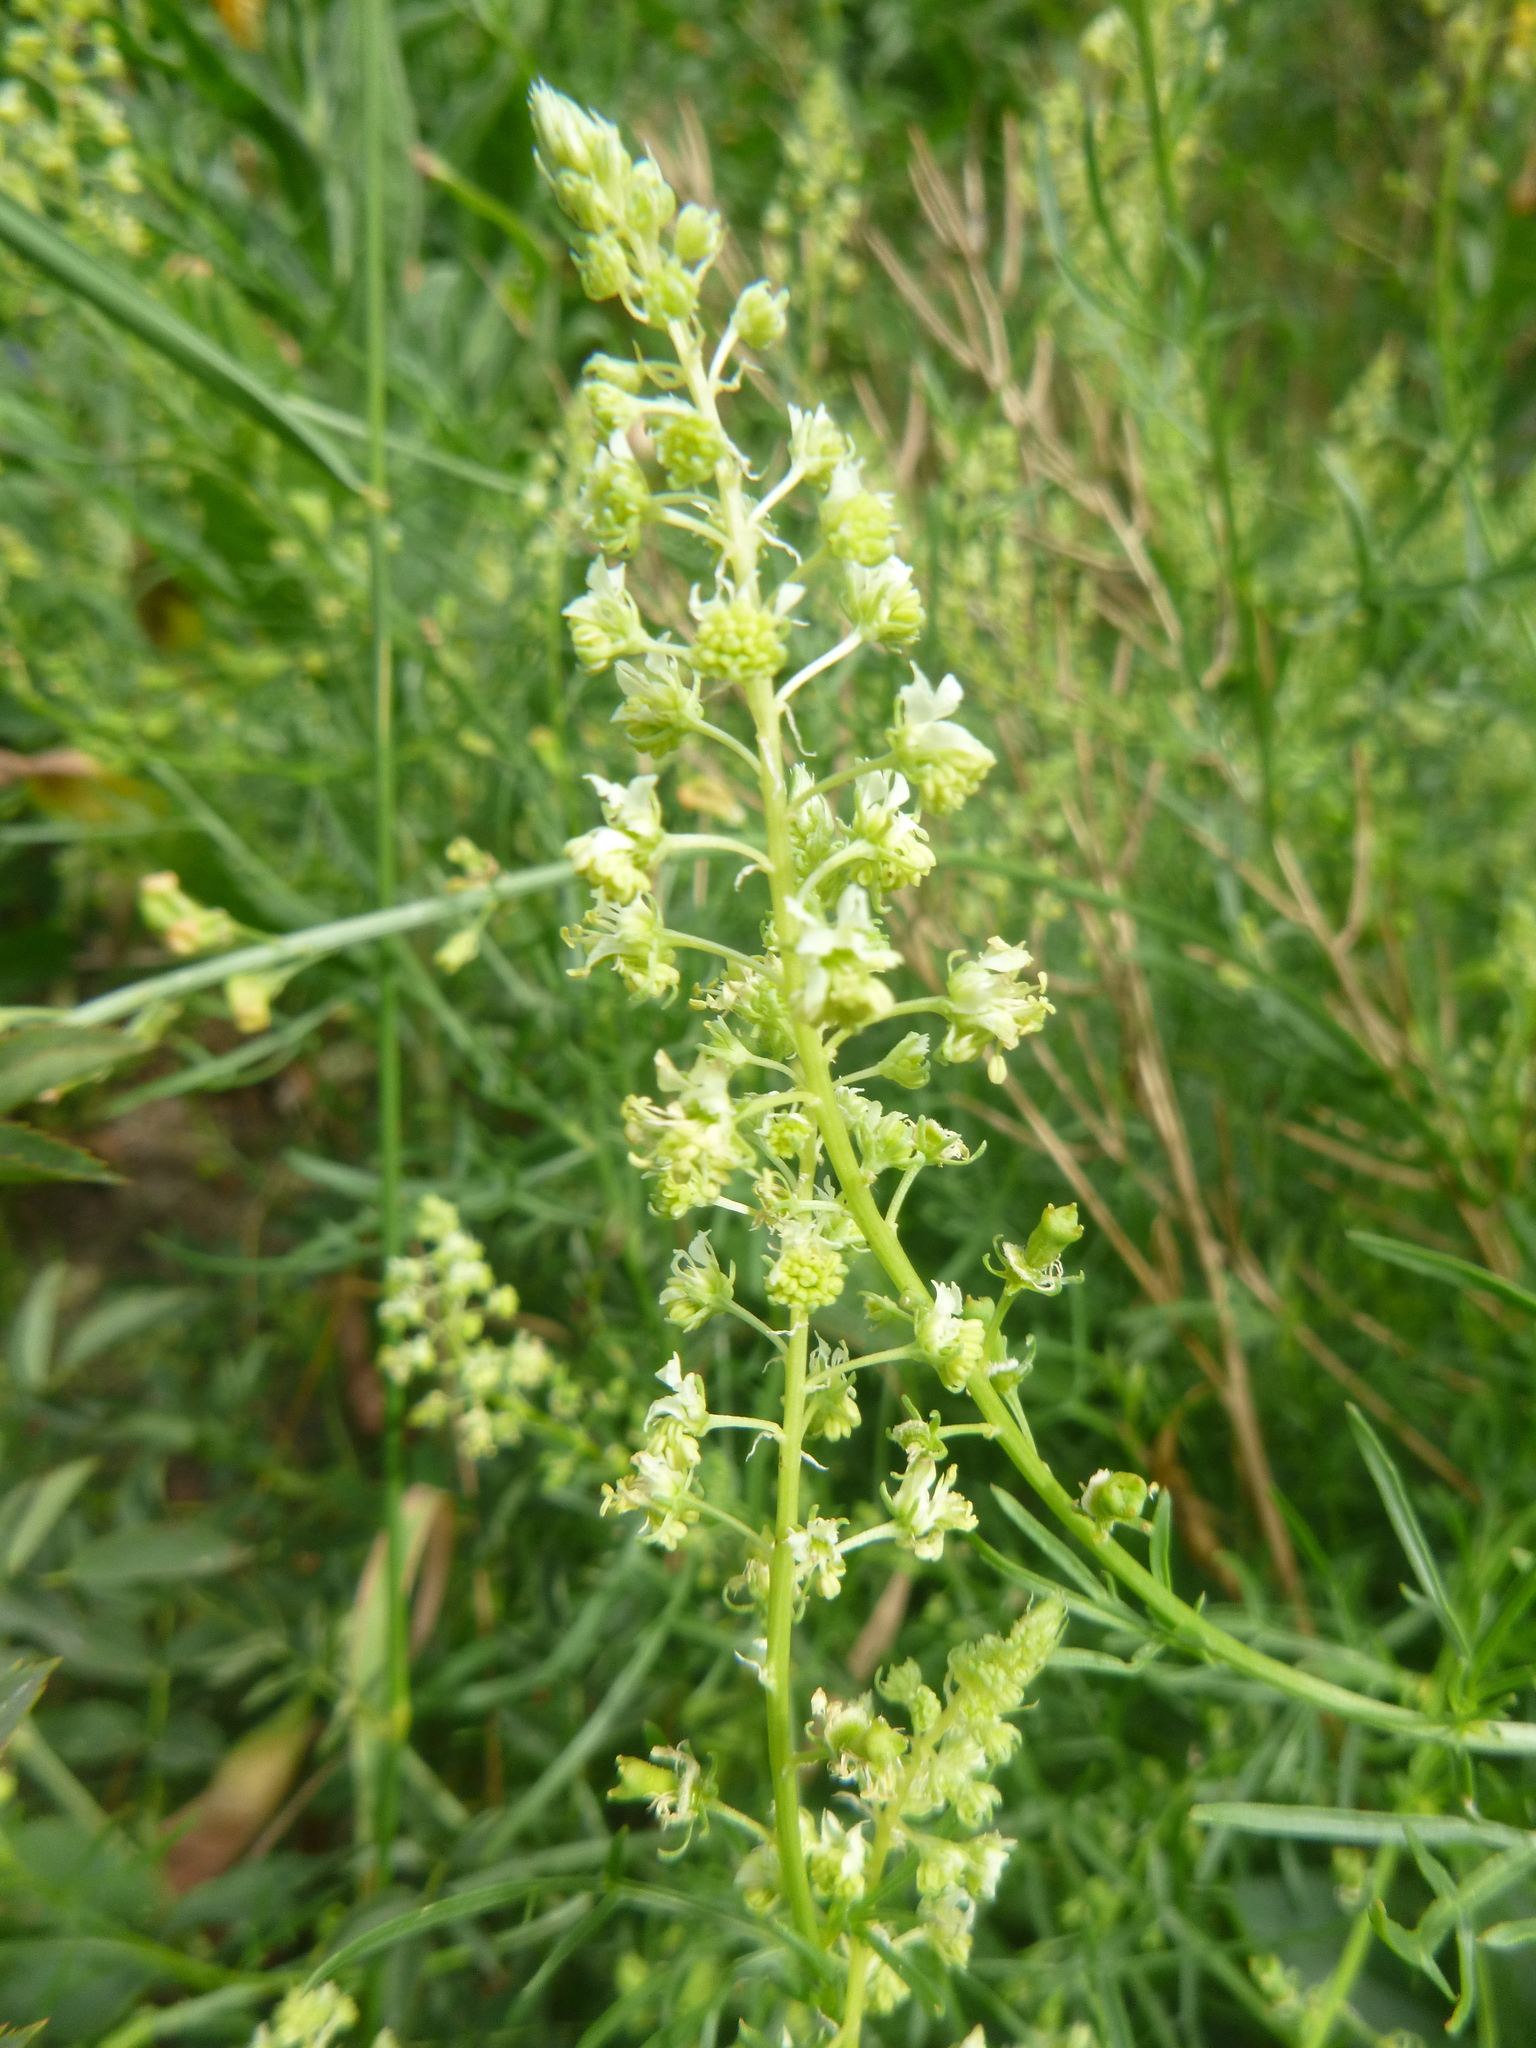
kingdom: Plantae
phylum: Tracheophyta
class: Magnoliopsida
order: Brassicales
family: Resedaceae
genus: Reseda
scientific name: Reseda lutea
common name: Wild mignonette
